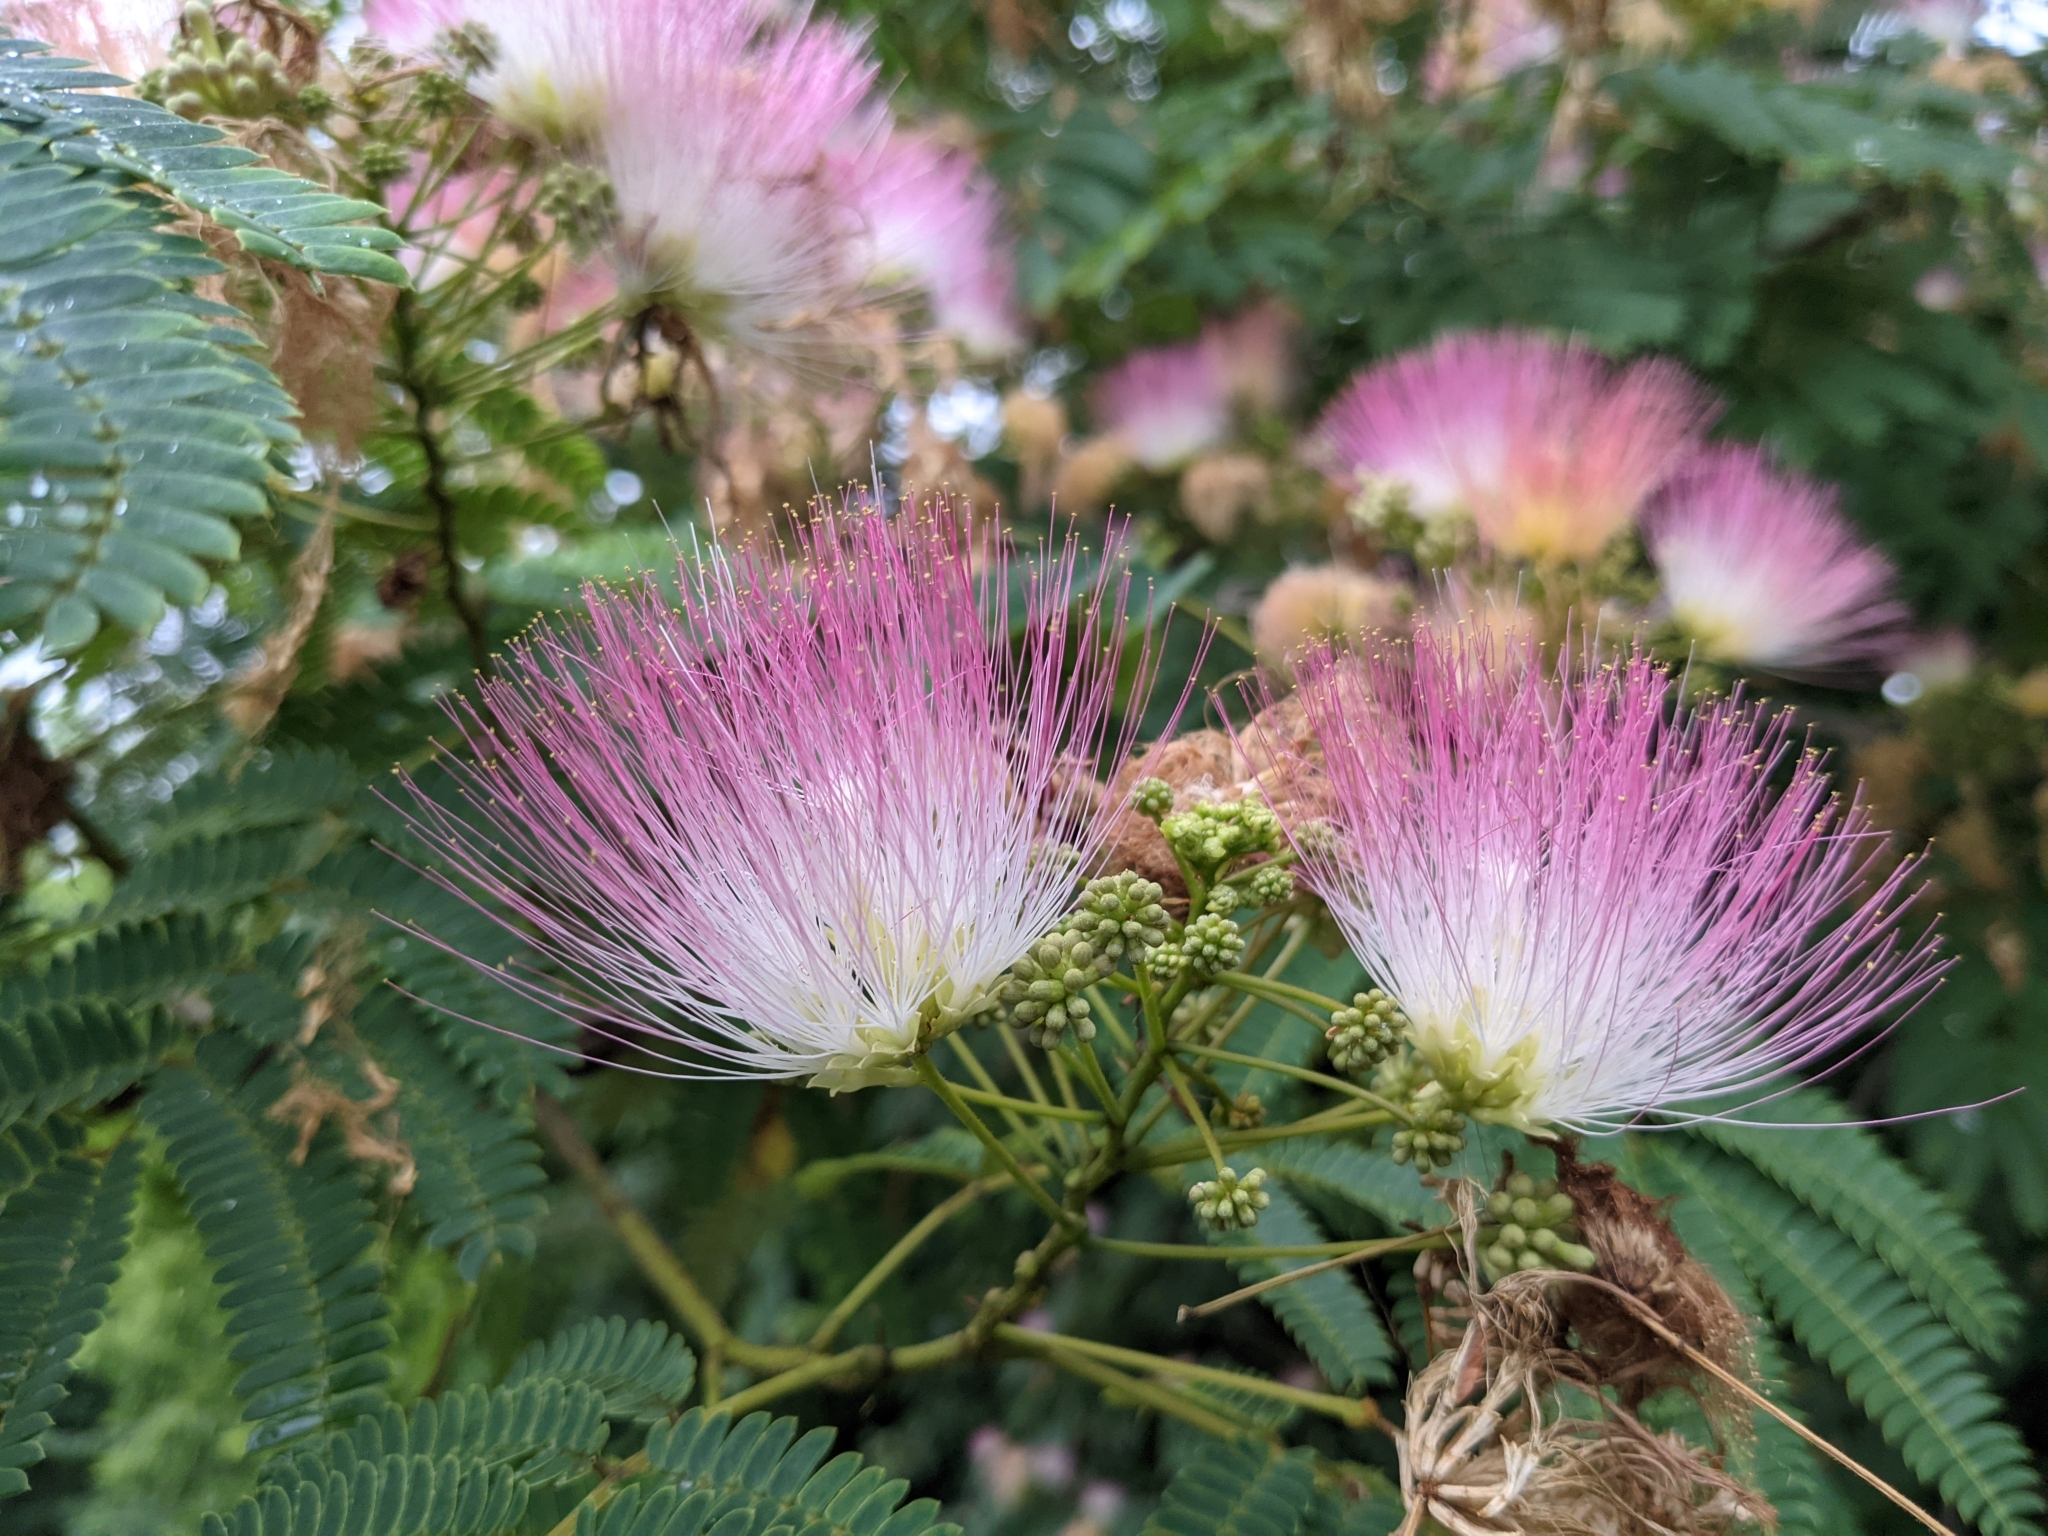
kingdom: Plantae
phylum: Tracheophyta
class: Magnoliopsida
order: Fabales
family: Fabaceae
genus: Albizia
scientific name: Albizia julibrissin
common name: Silktree
